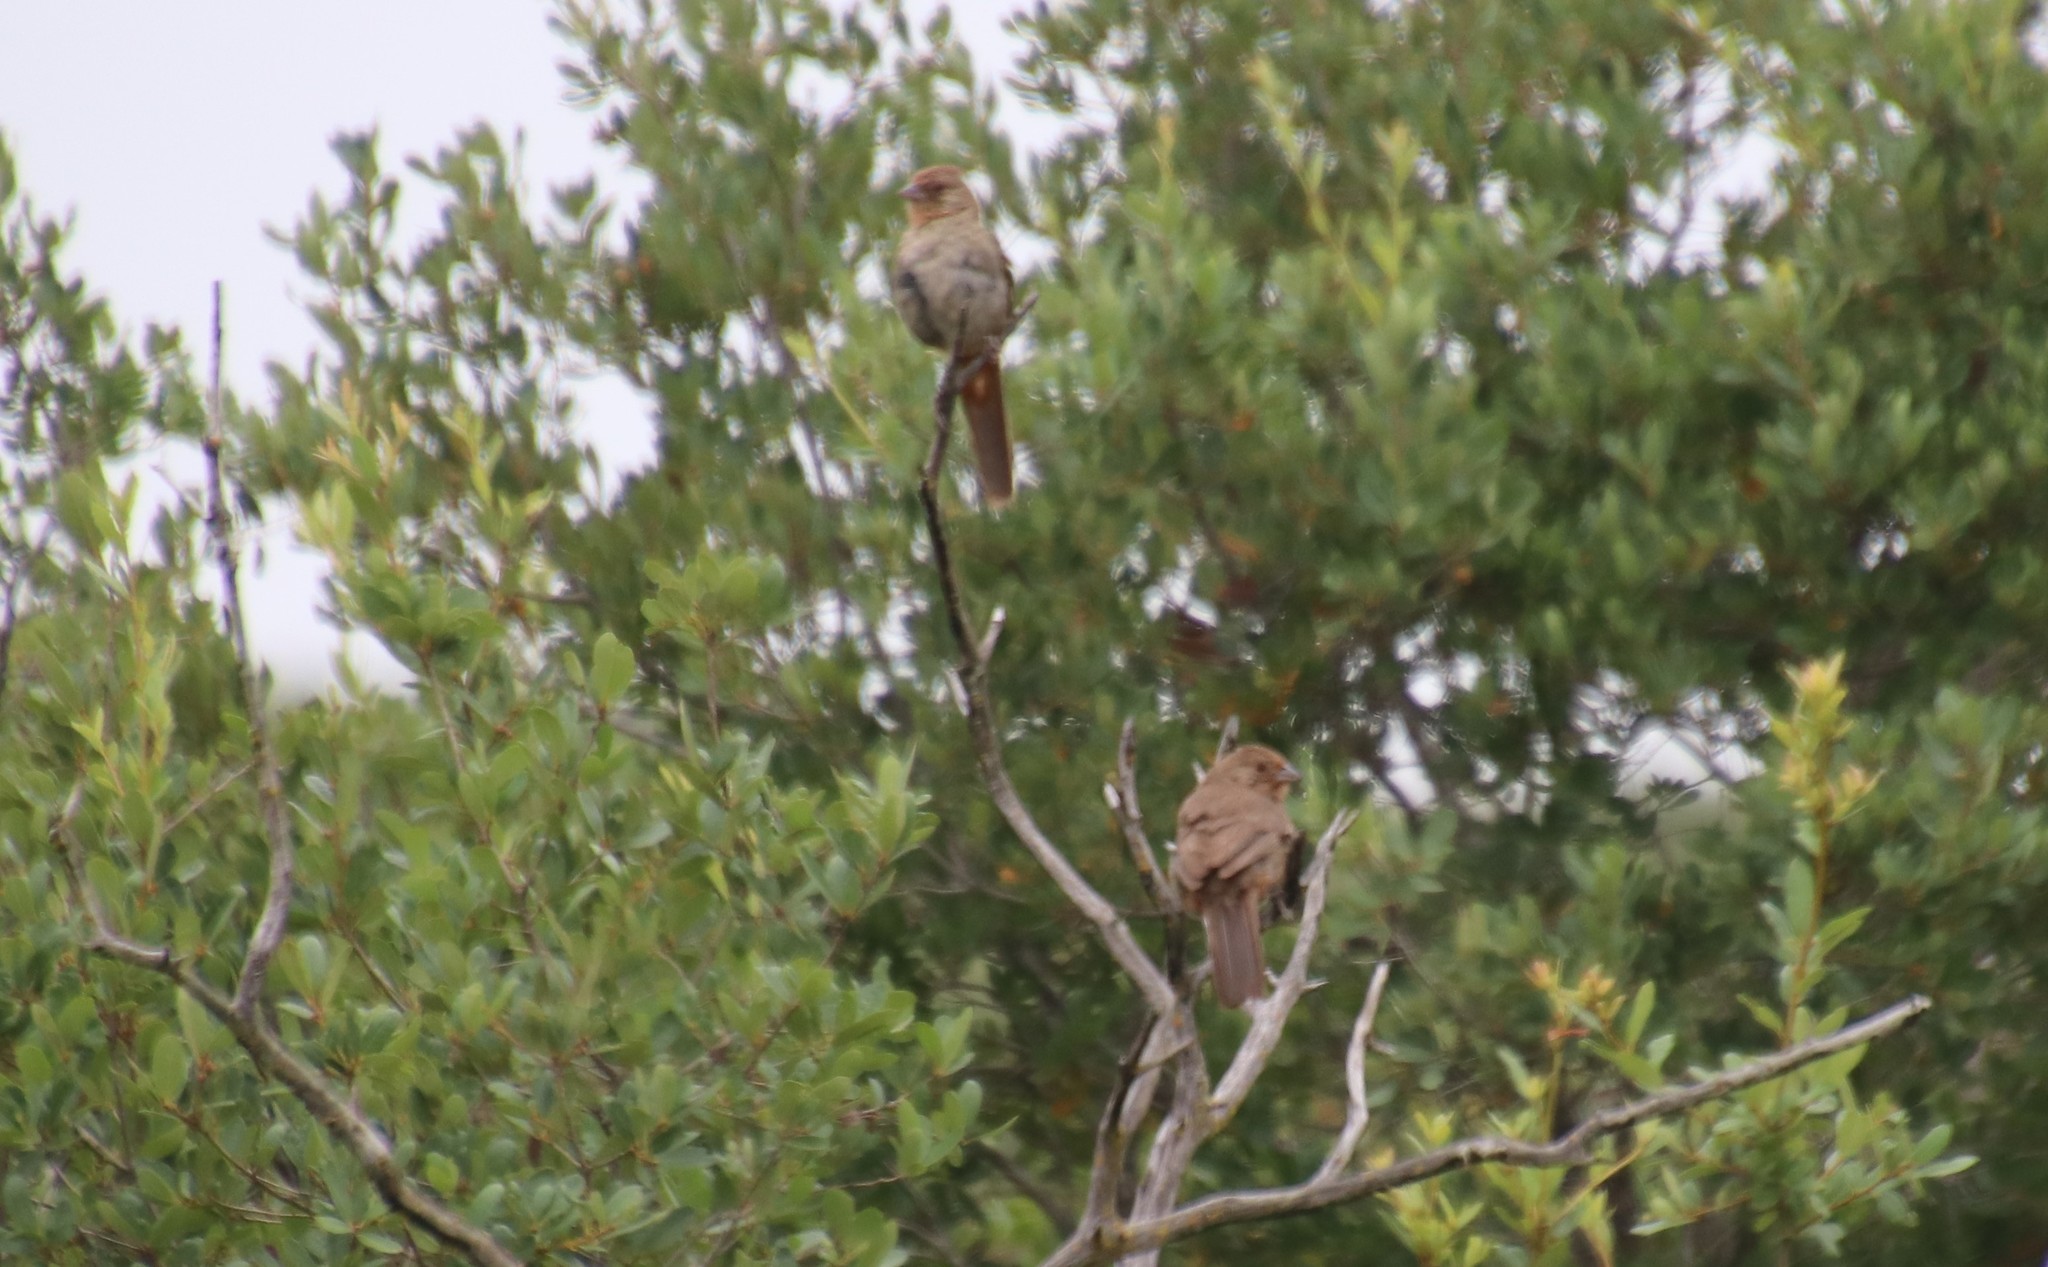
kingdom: Animalia
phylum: Chordata
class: Aves
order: Passeriformes
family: Passerellidae
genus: Melozone
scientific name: Melozone crissalis
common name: California towhee
